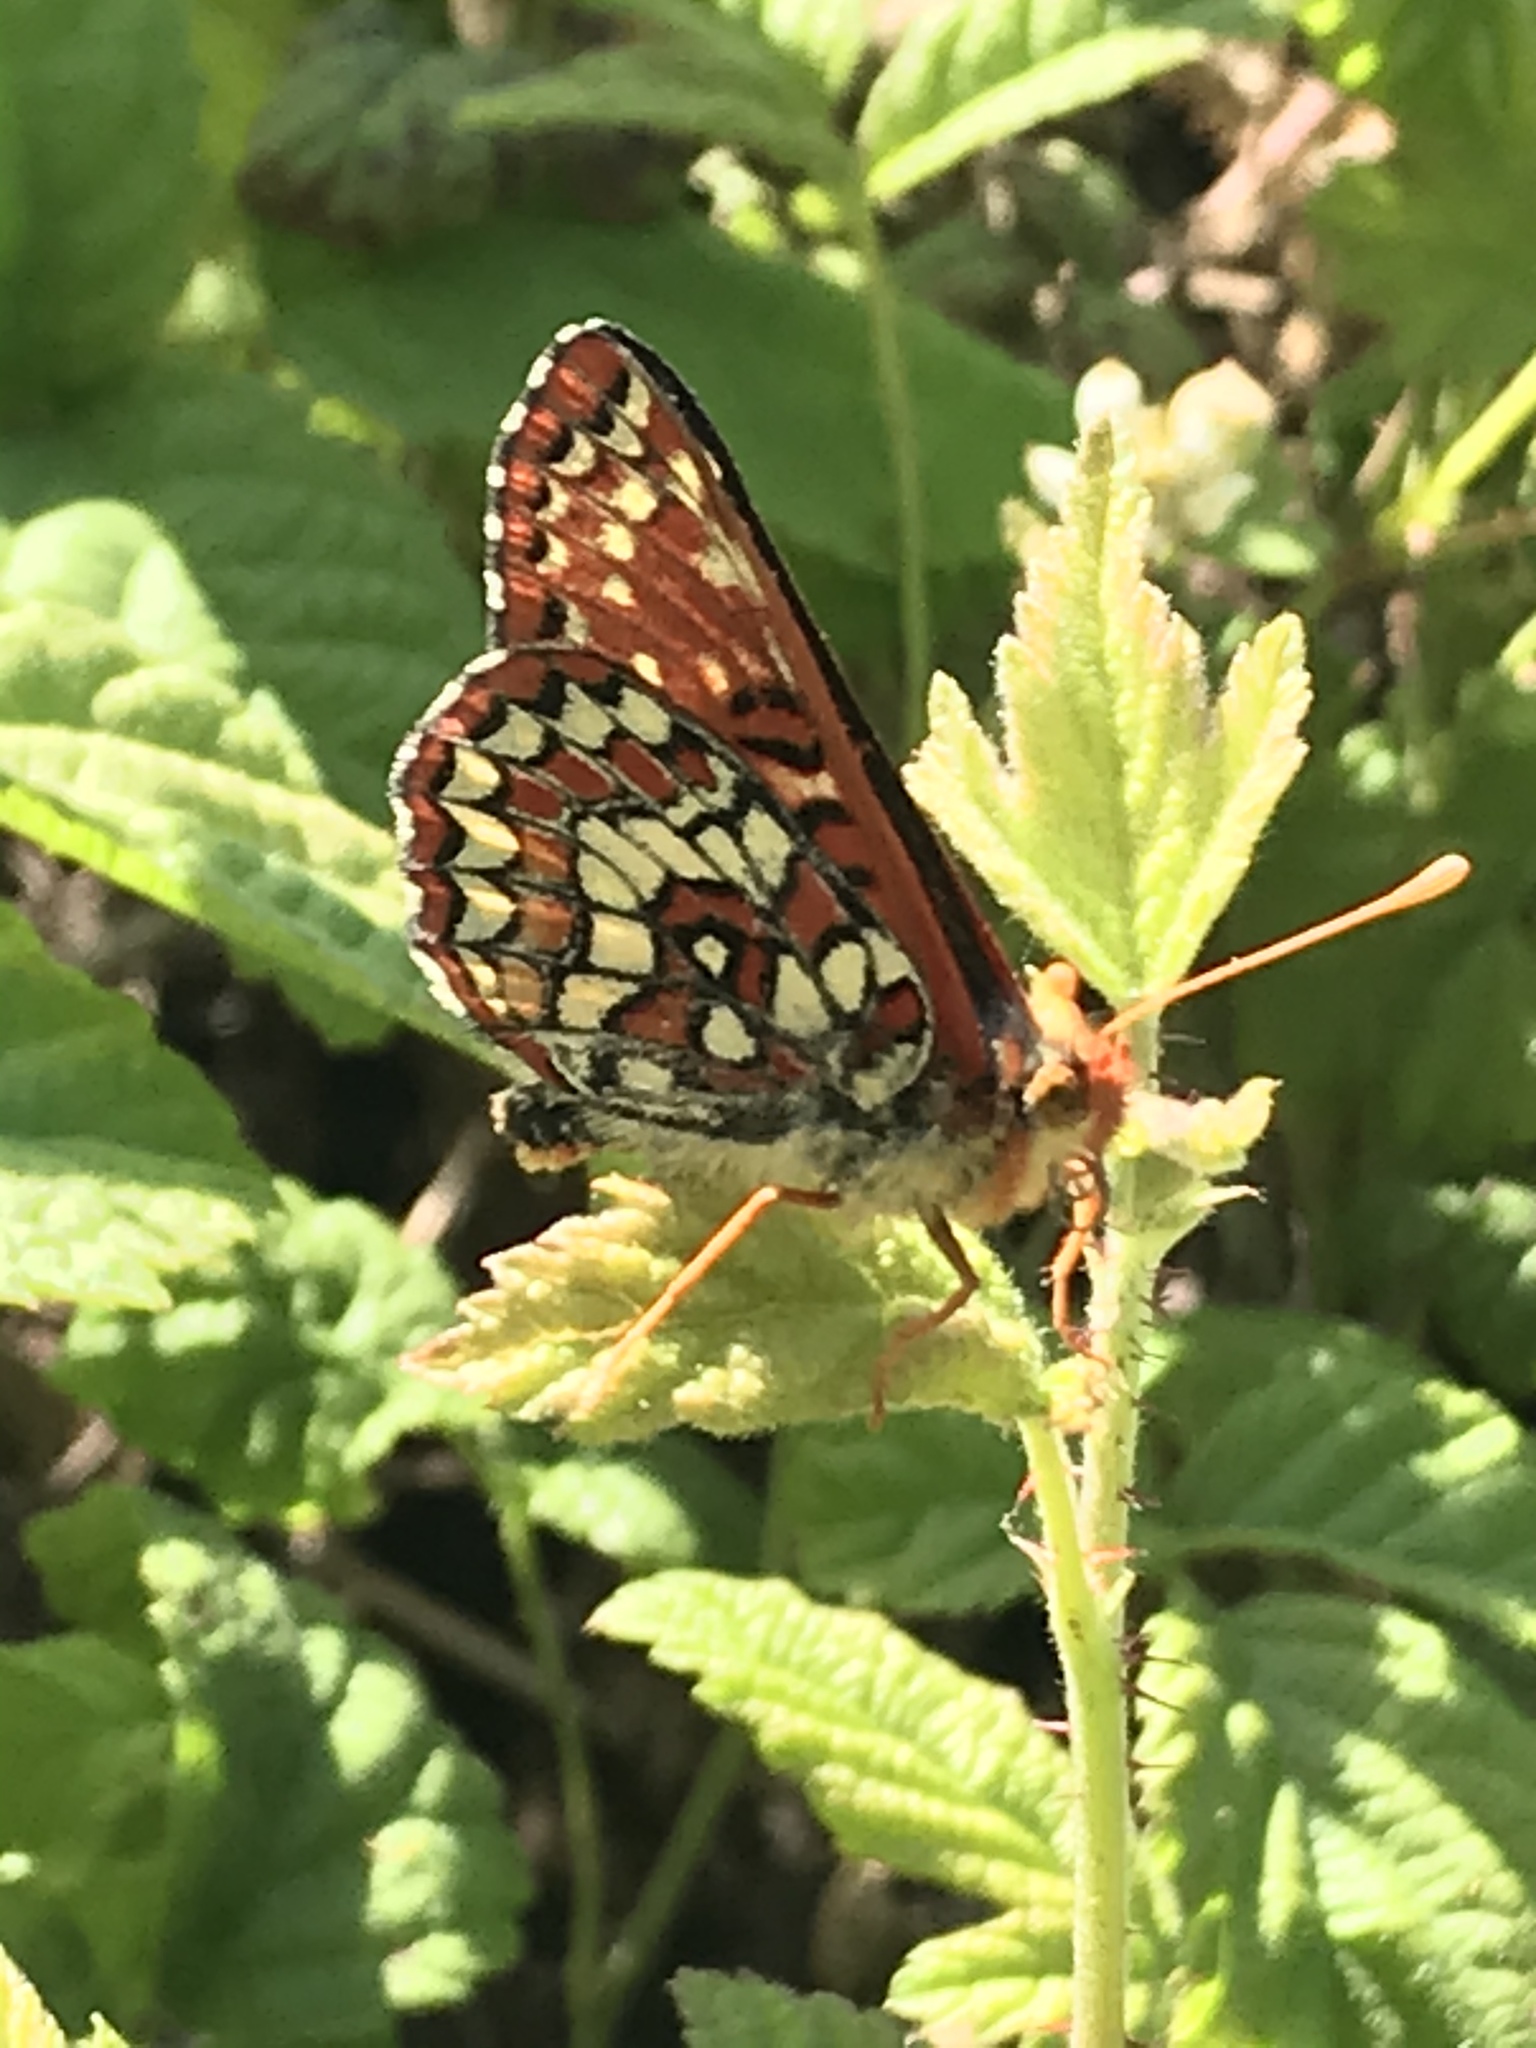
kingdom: Animalia
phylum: Arthropoda
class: Insecta
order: Lepidoptera
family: Nymphalidae
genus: Occidryas
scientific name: Occidryas chalcedona
